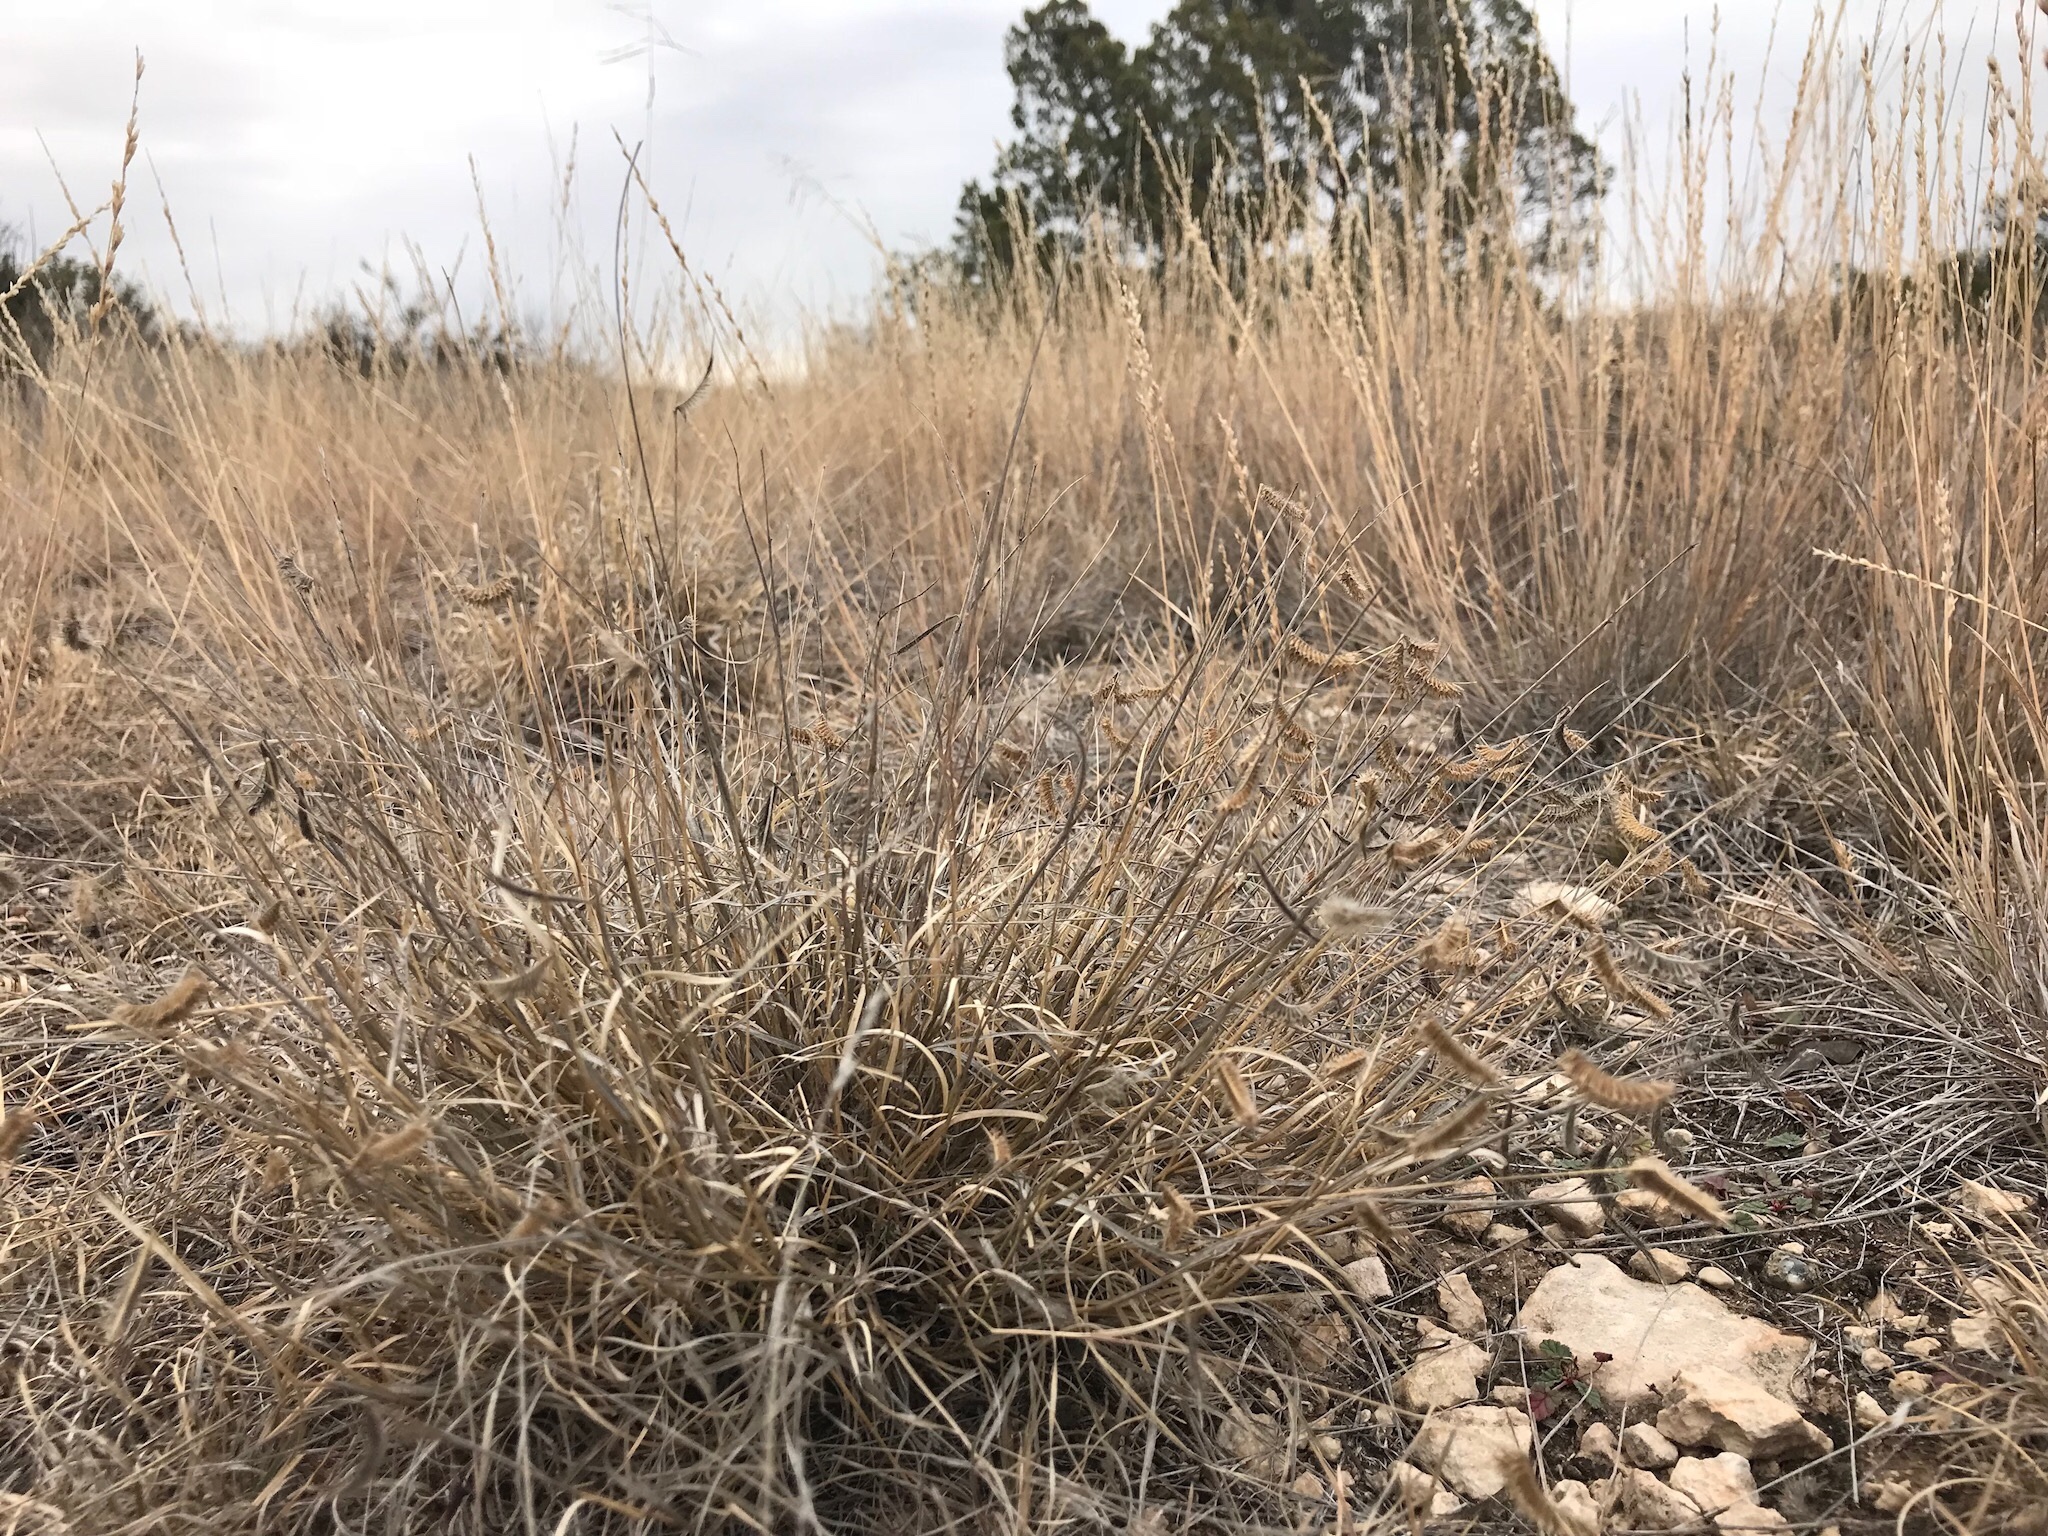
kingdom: Plantae
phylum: Tracheophyta
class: Liliopsida
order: Poales
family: Poaceae
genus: Bouteloua
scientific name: Bouteloua gracilis
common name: Blue grama
